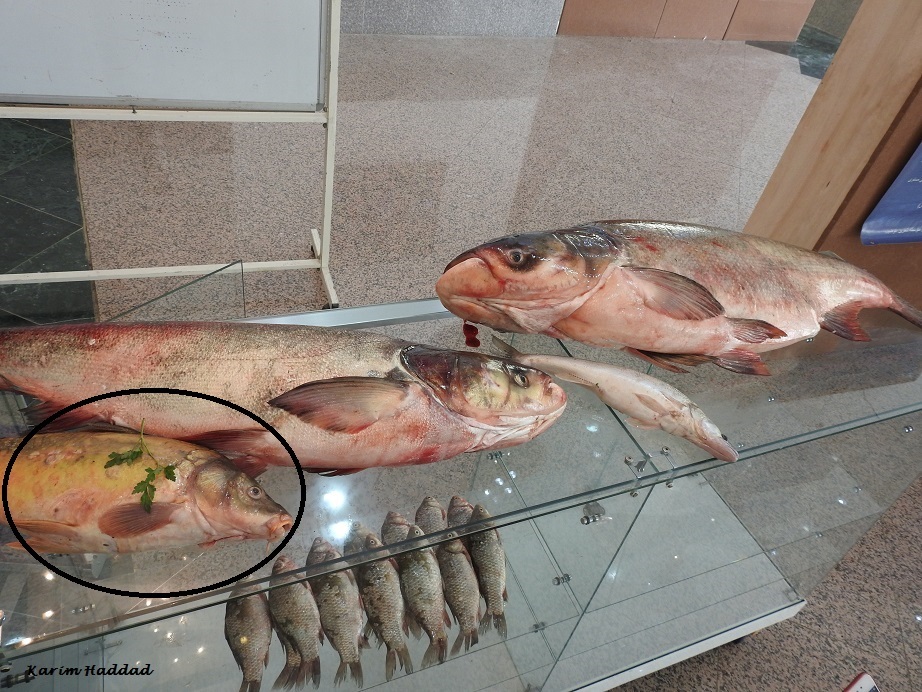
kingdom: Animalia
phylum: Chordata
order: Cypriniformes
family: Cyprinidae
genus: Cyprinus
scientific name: Cyprinus carpio
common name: Common carp
